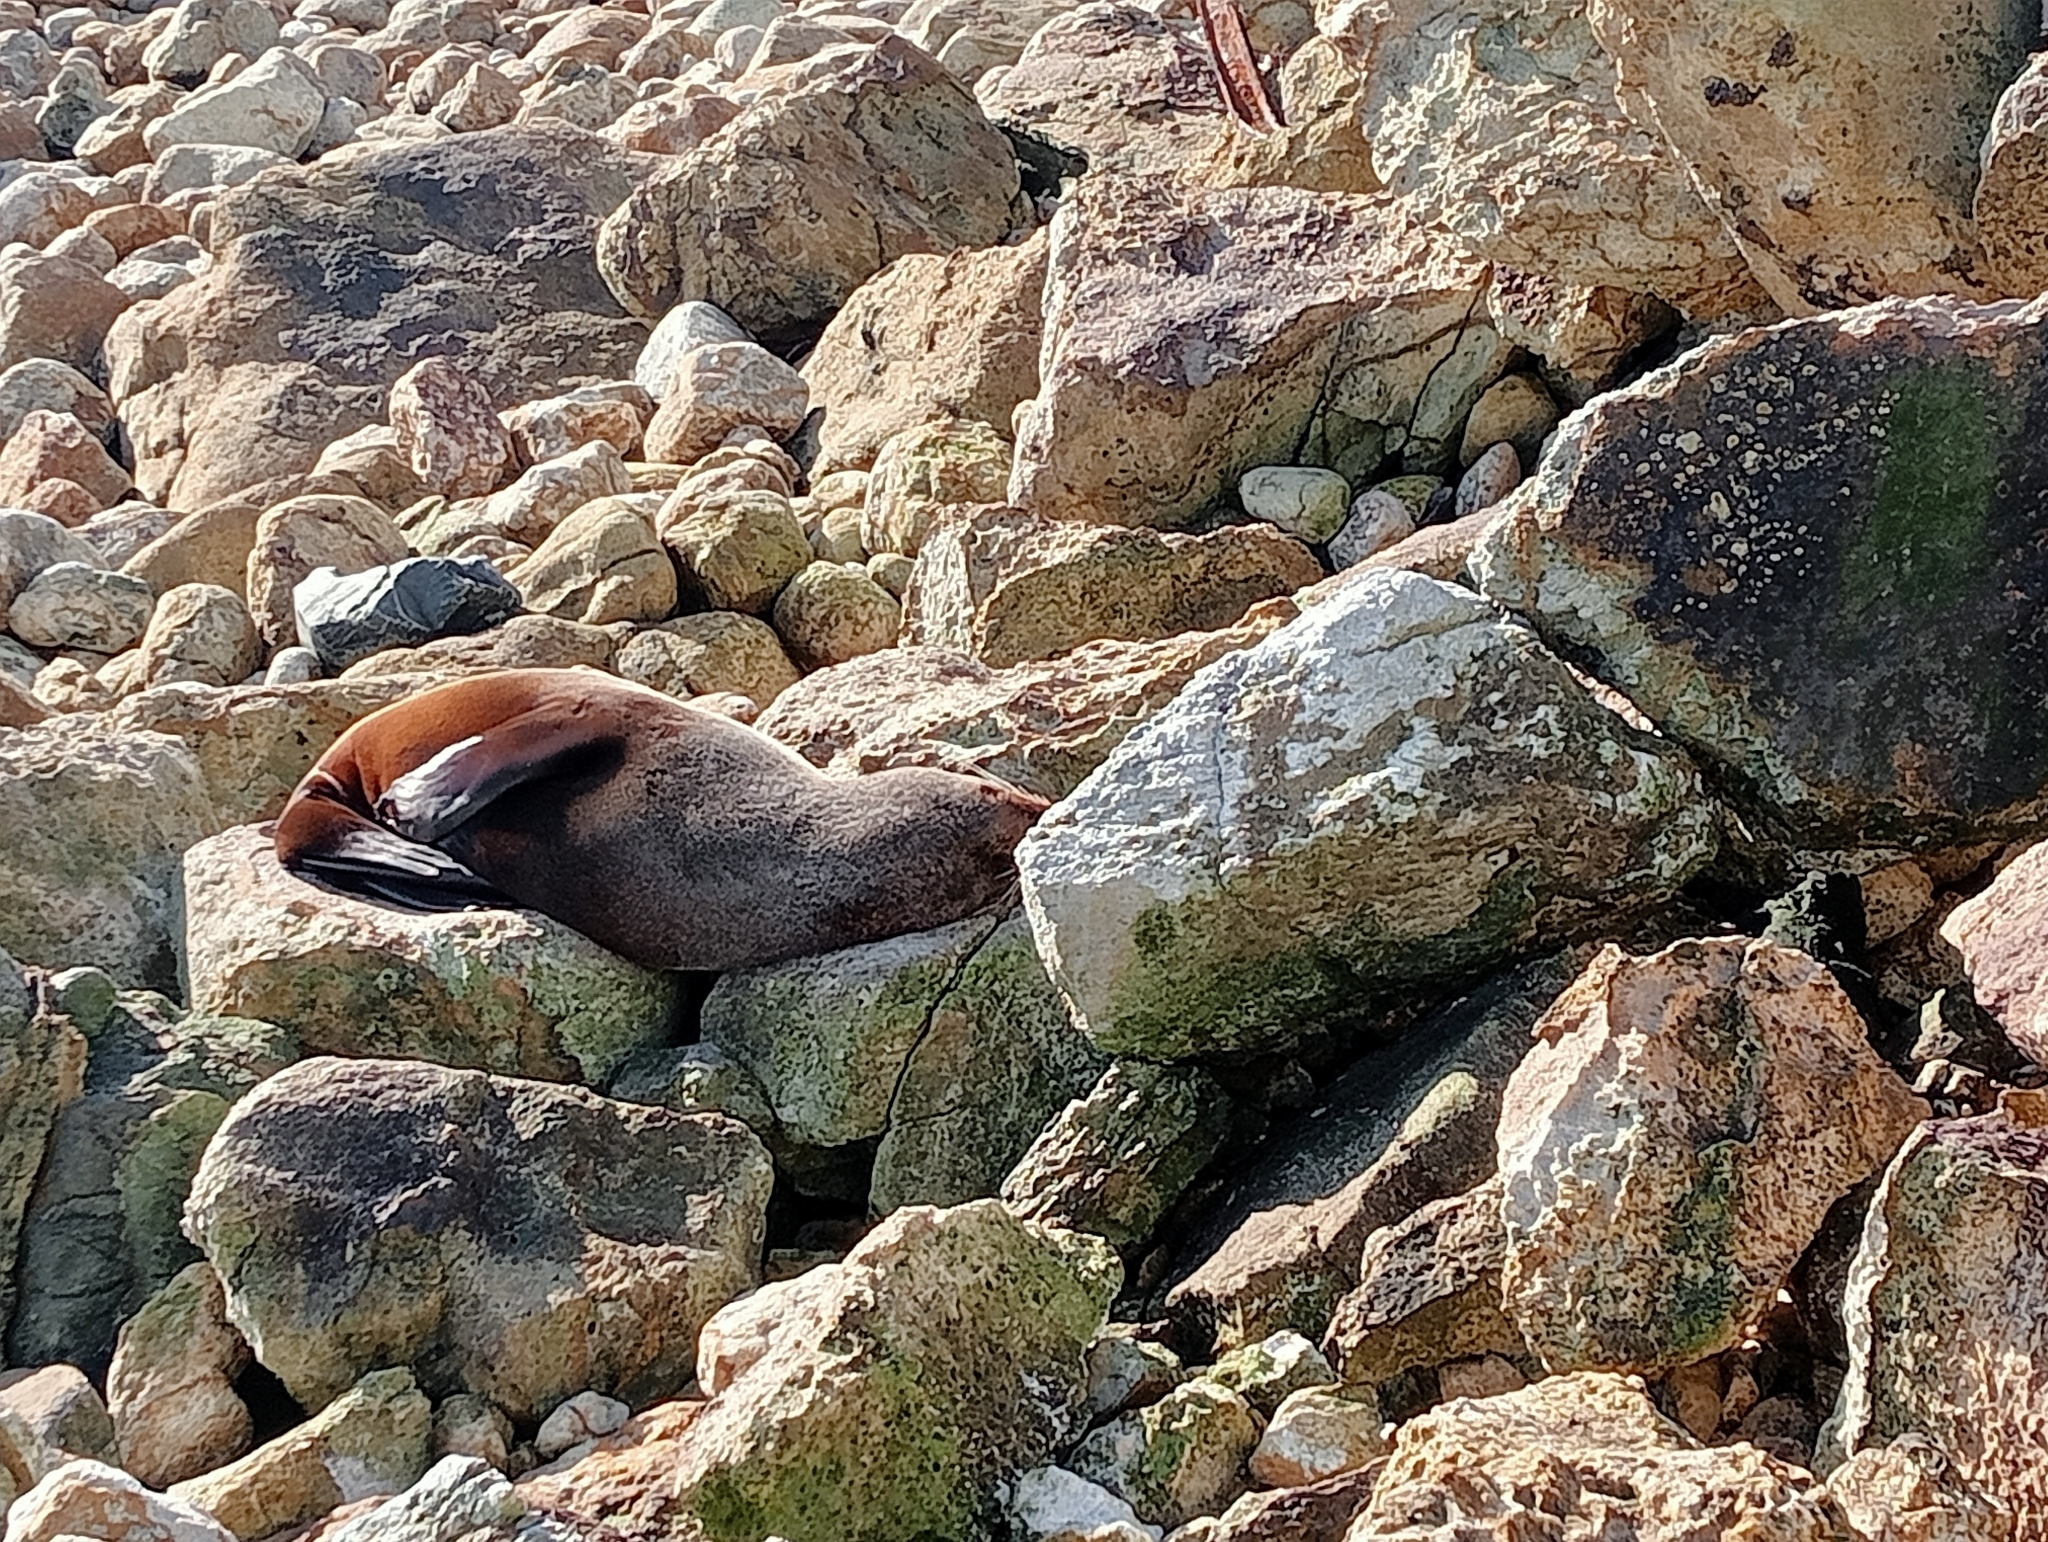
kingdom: Animalia
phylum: Chordata
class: Mammalia
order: Carnivora
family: Otariidae
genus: Arctocephalus
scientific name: Arctocephalus forsteri
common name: New zealand fur seal
